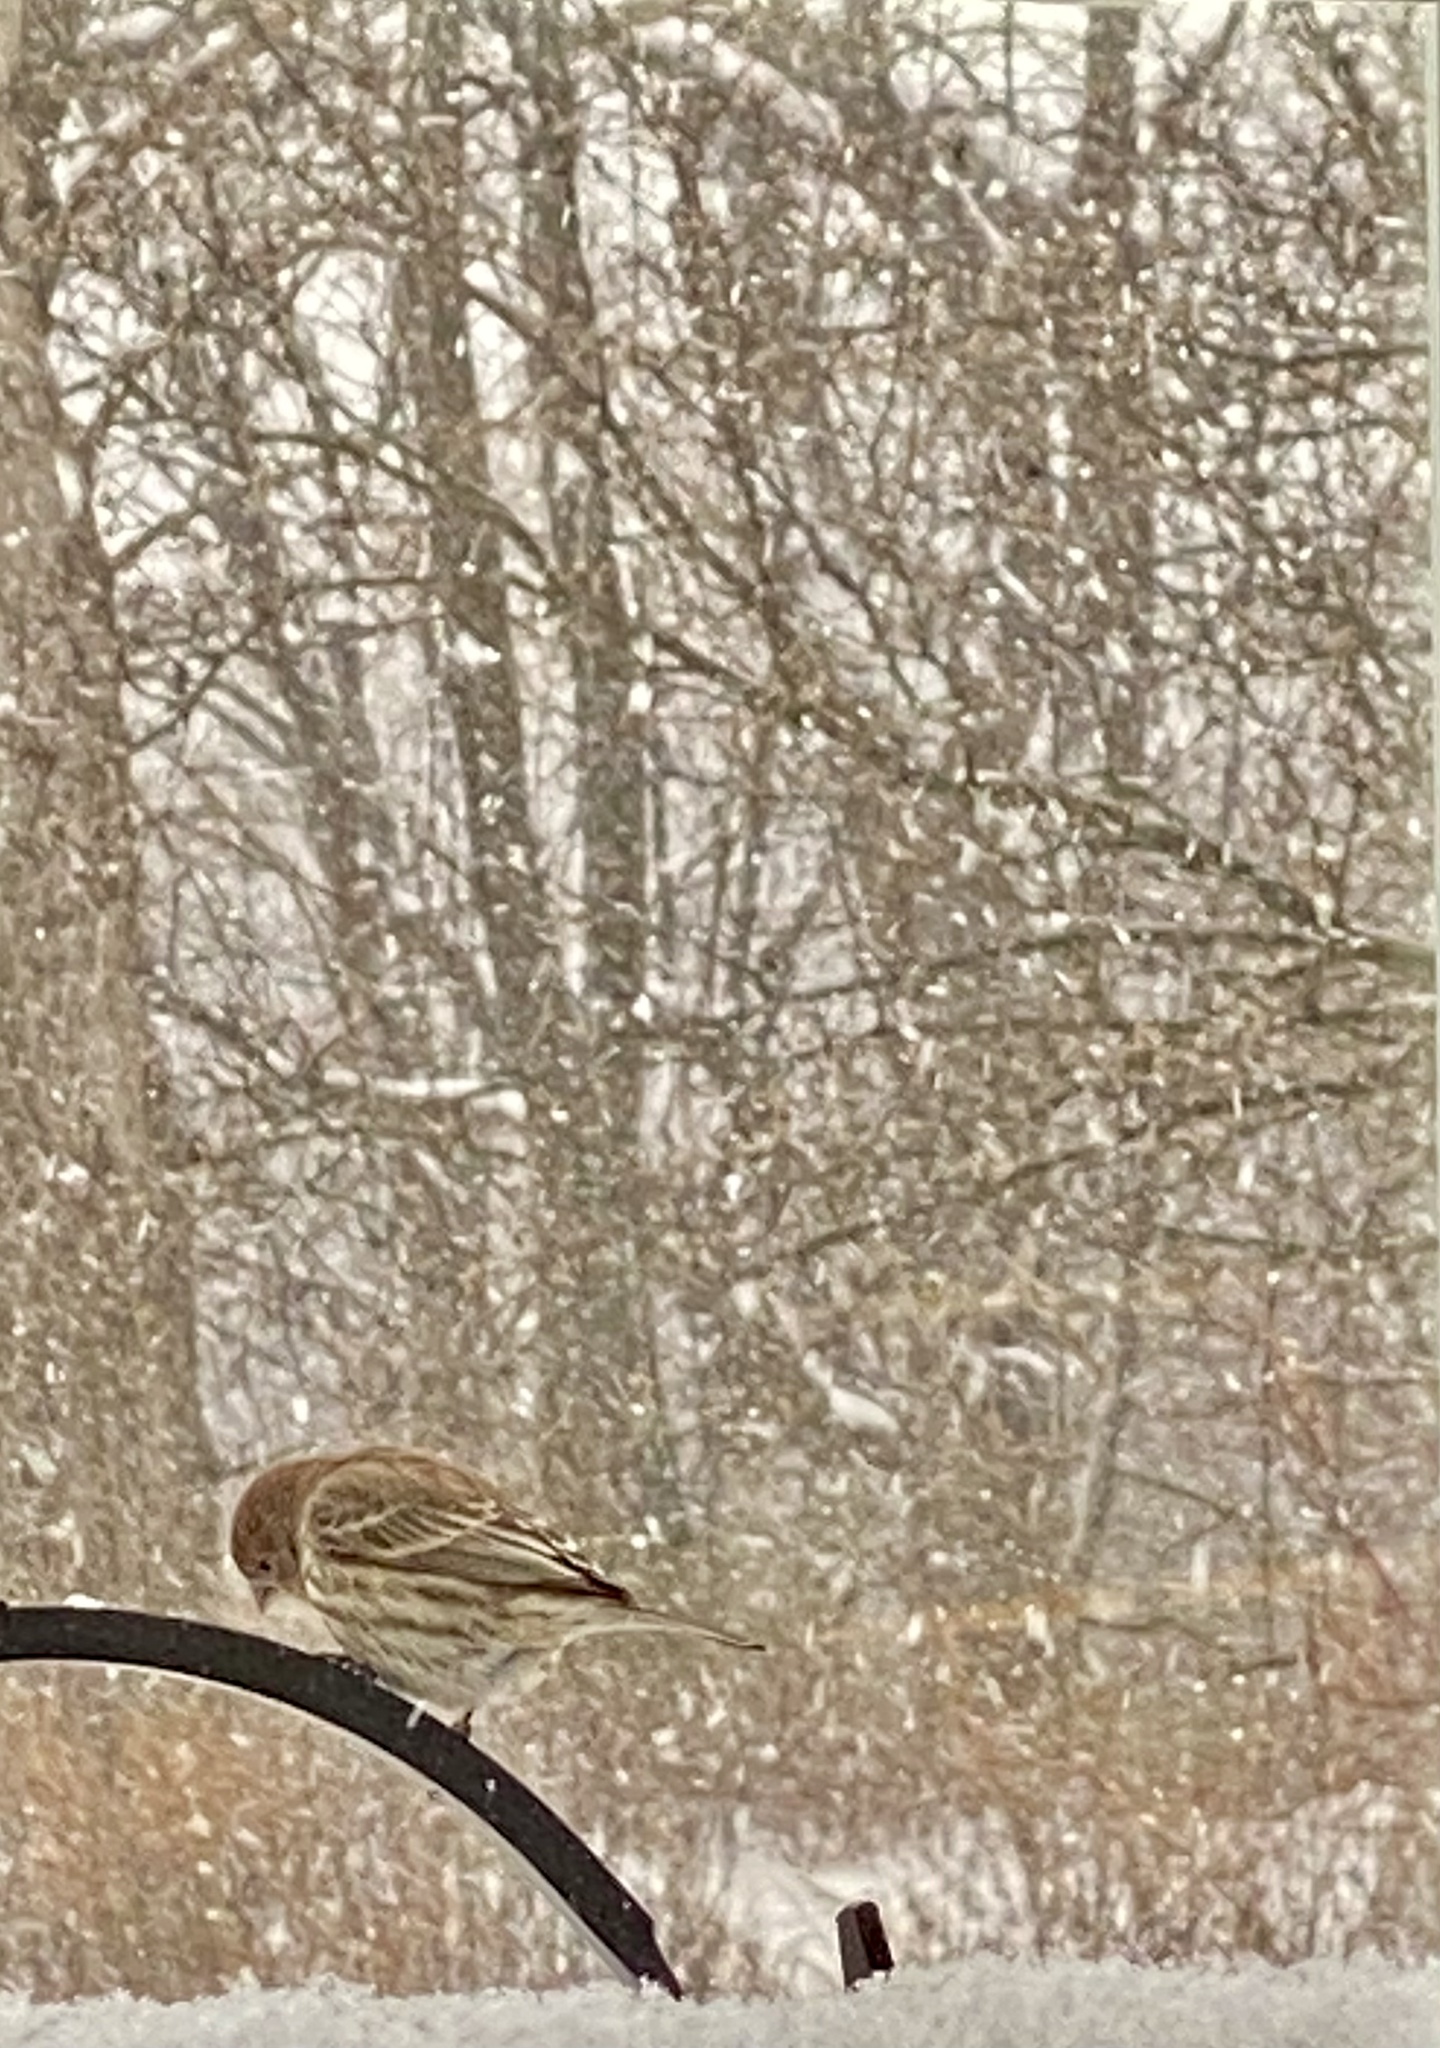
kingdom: Animalia
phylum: Chordata
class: Aves
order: Passeriformes
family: Fringillidae
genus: Haemorhous
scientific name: Haemorhous mexicanus
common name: House finch
